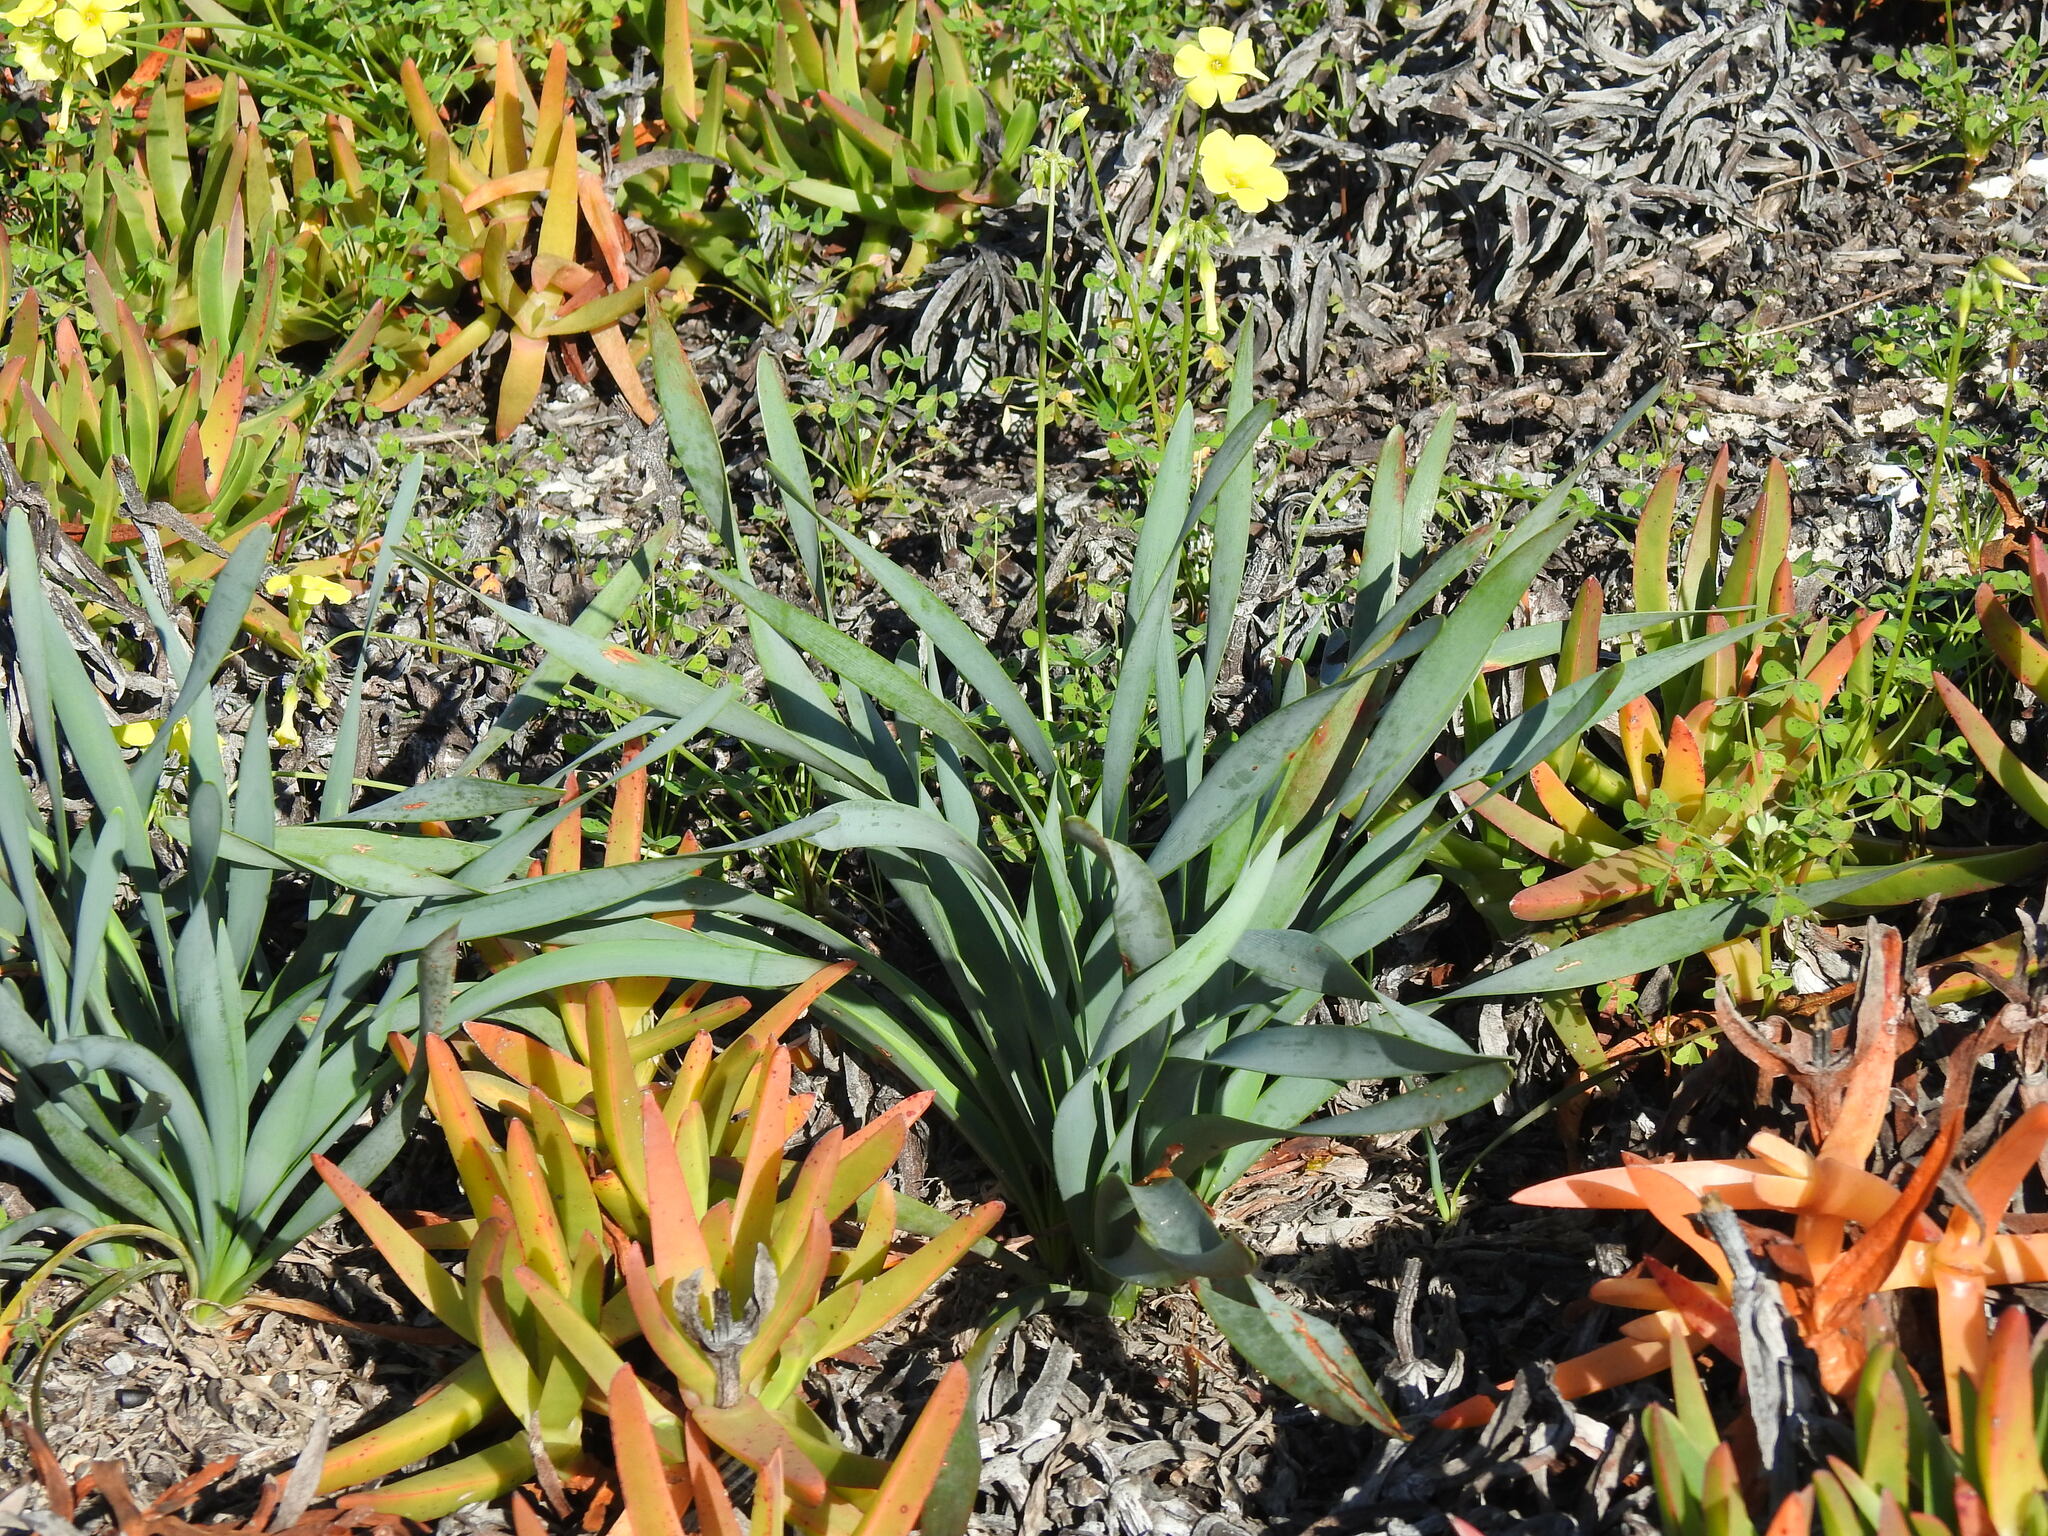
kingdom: Plantae
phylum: Tracheophyta
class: Liliopsida
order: Asparagales
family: Amaryllidaceae
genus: Pancratium
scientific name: Pancratium maritimum
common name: Sea-daffodil
